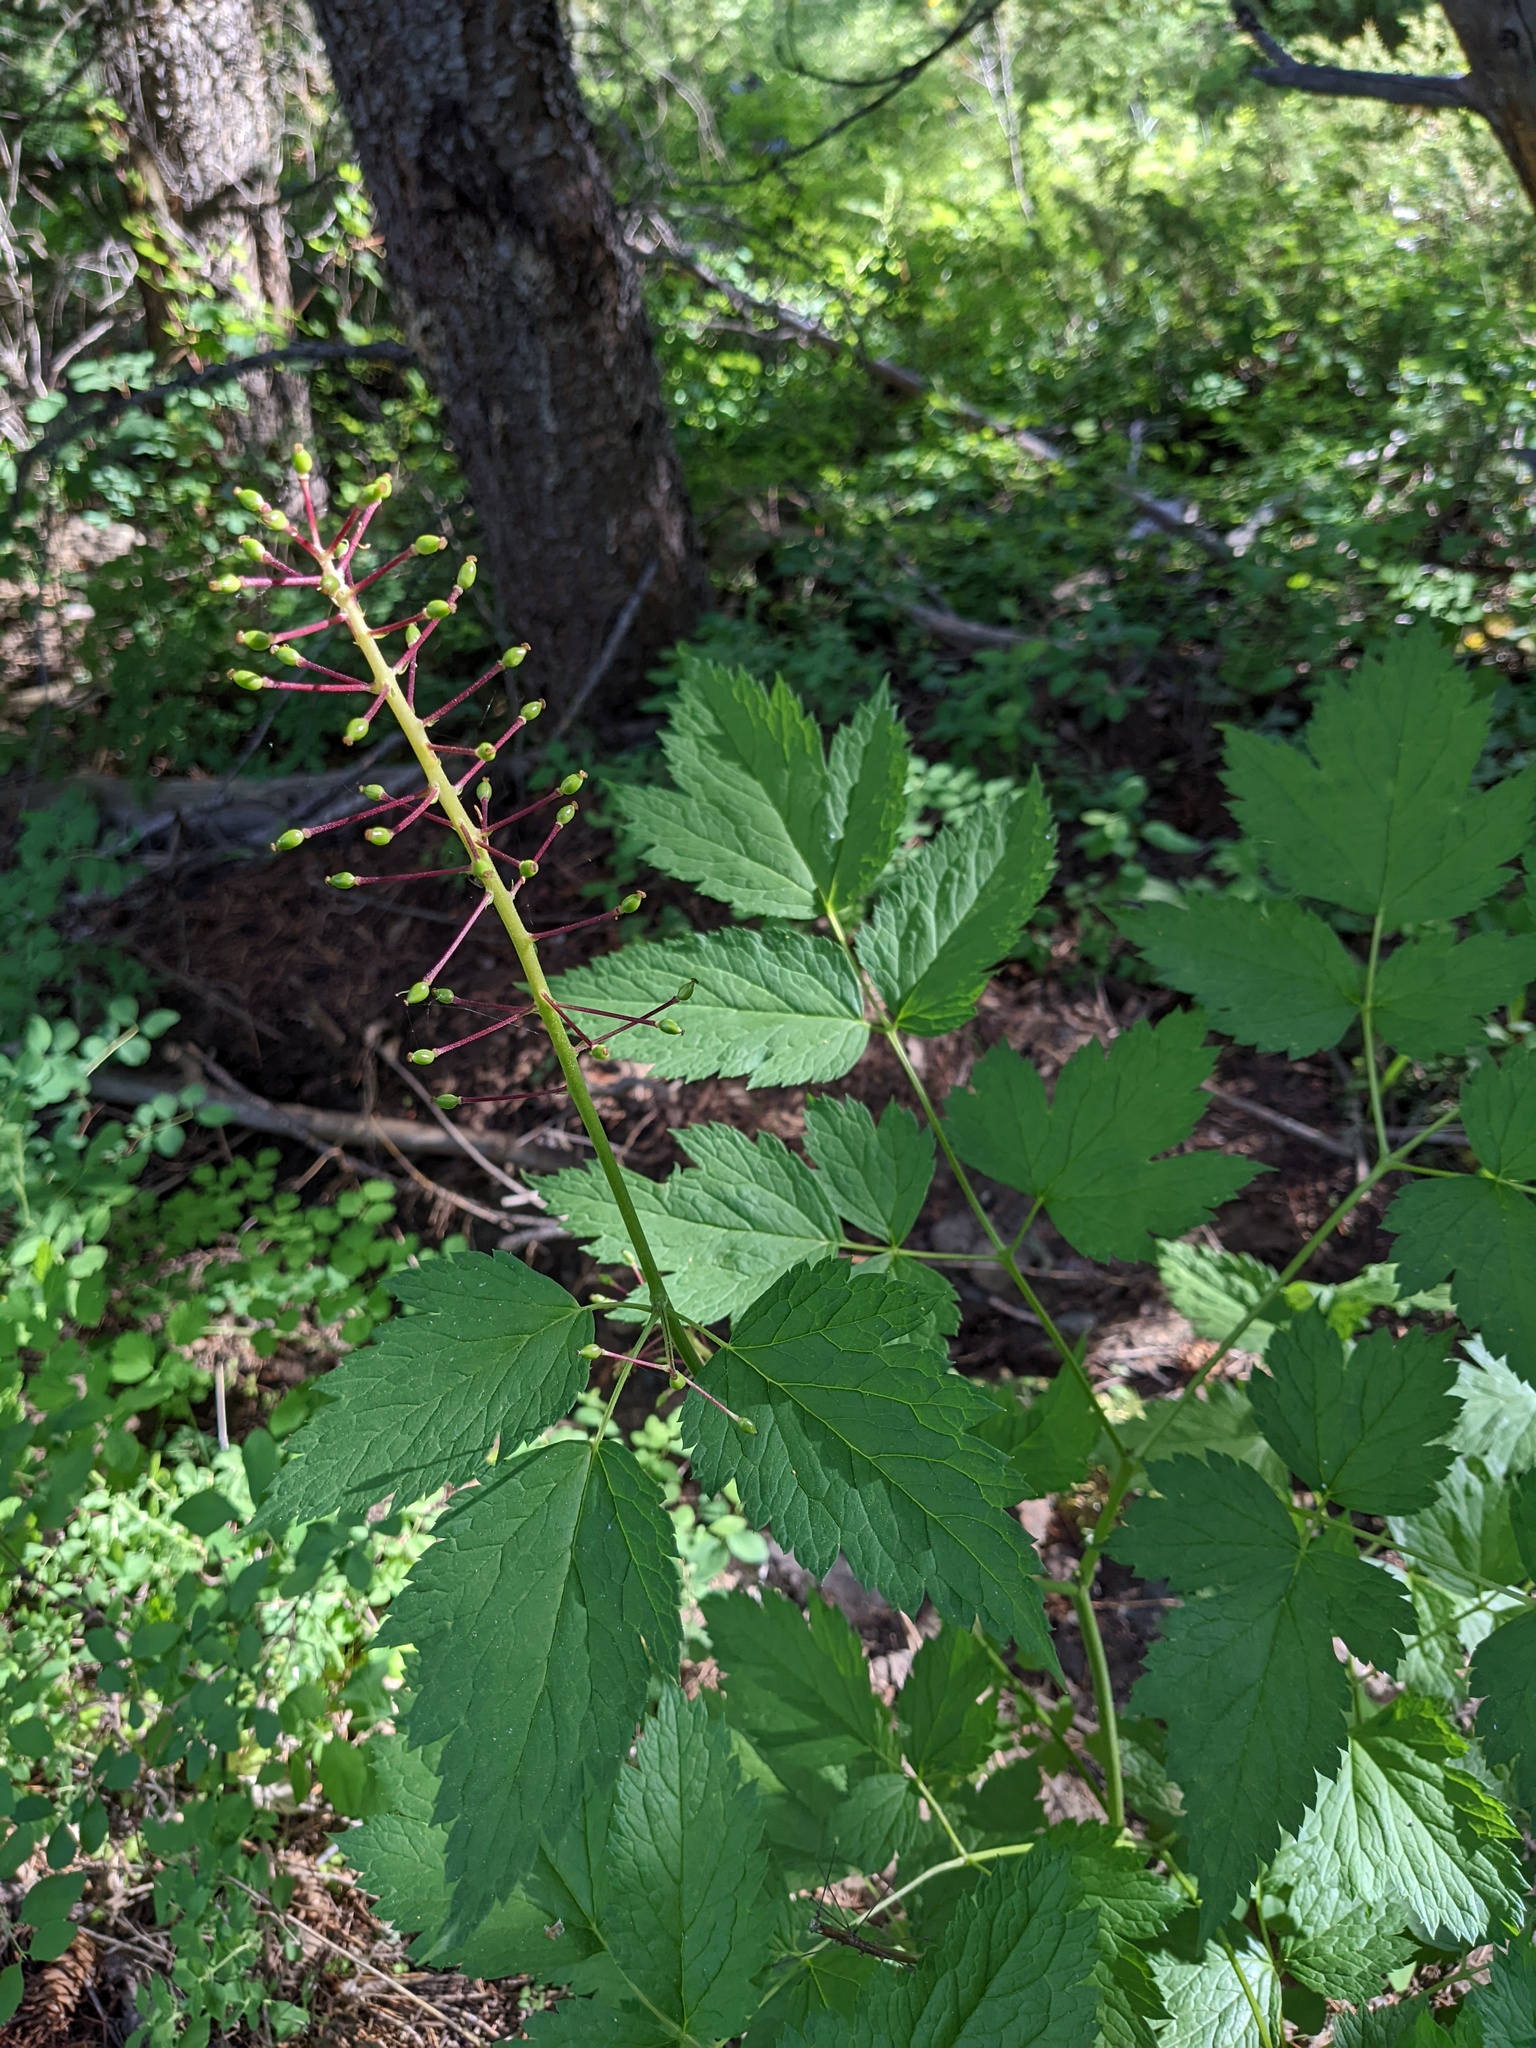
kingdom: Plantae
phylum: Tracheophyta
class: Magnoliopsida
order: Ranunculales
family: Ranunculaceae
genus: Actaea
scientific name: Actaea rubra
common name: Red baneberry
